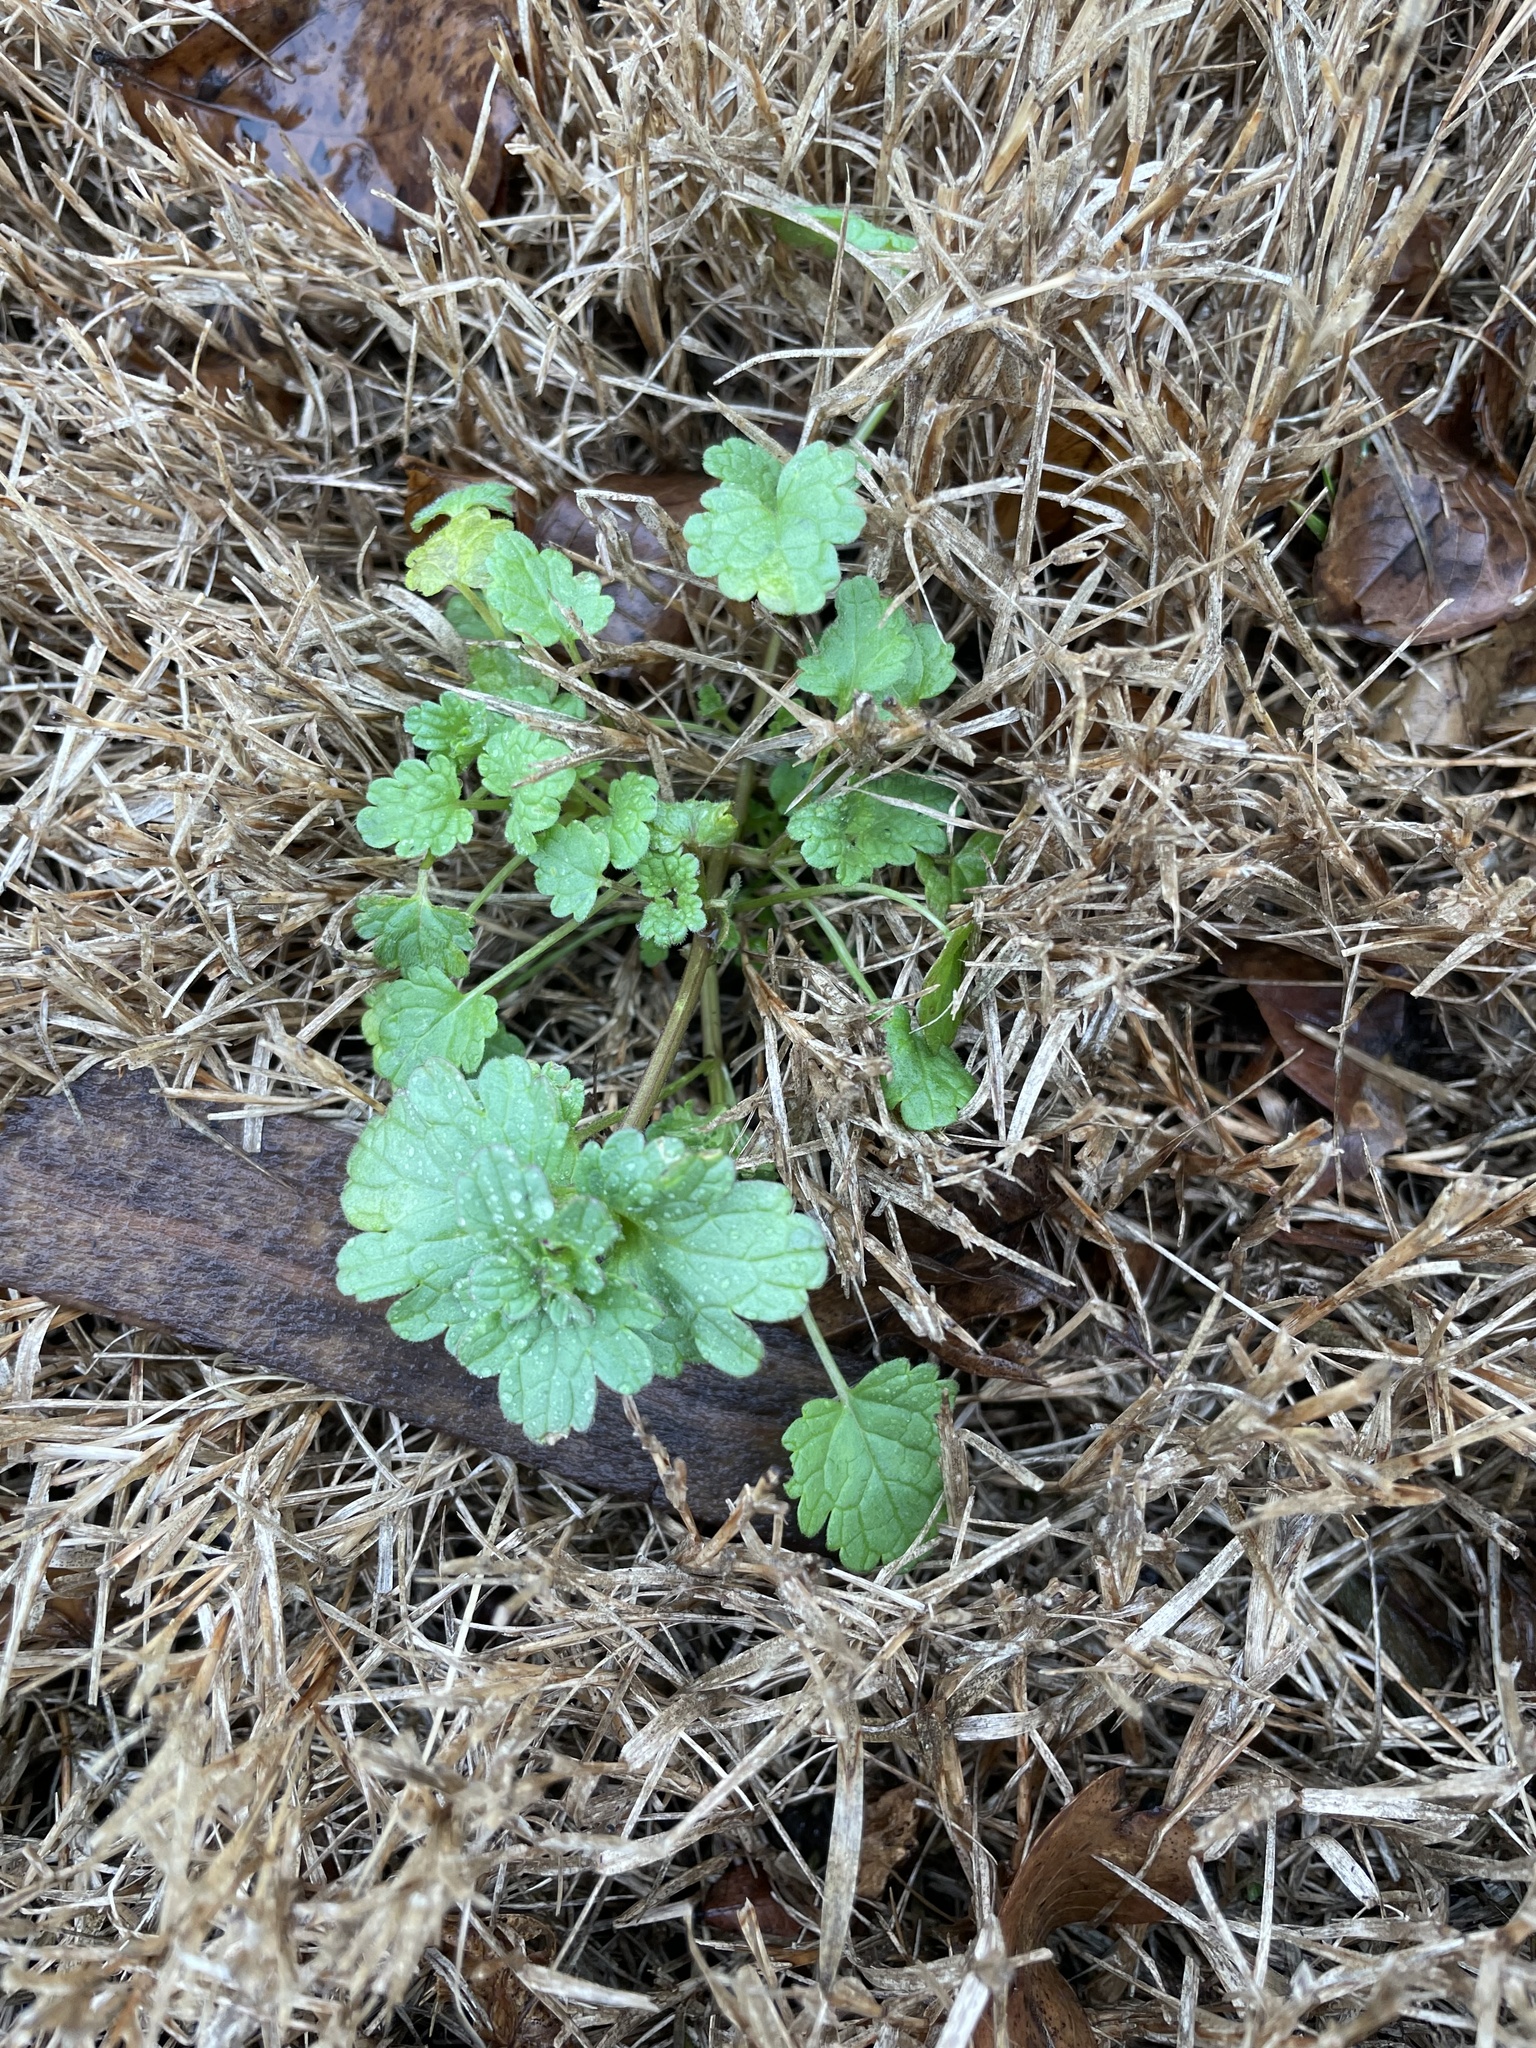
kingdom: Plantae
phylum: Tracheophyta
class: Magnoliopsida
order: Lamiales
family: Lamiaceae
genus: Lamium
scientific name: Lamium amplexicaule
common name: Henbit dead-nettle
